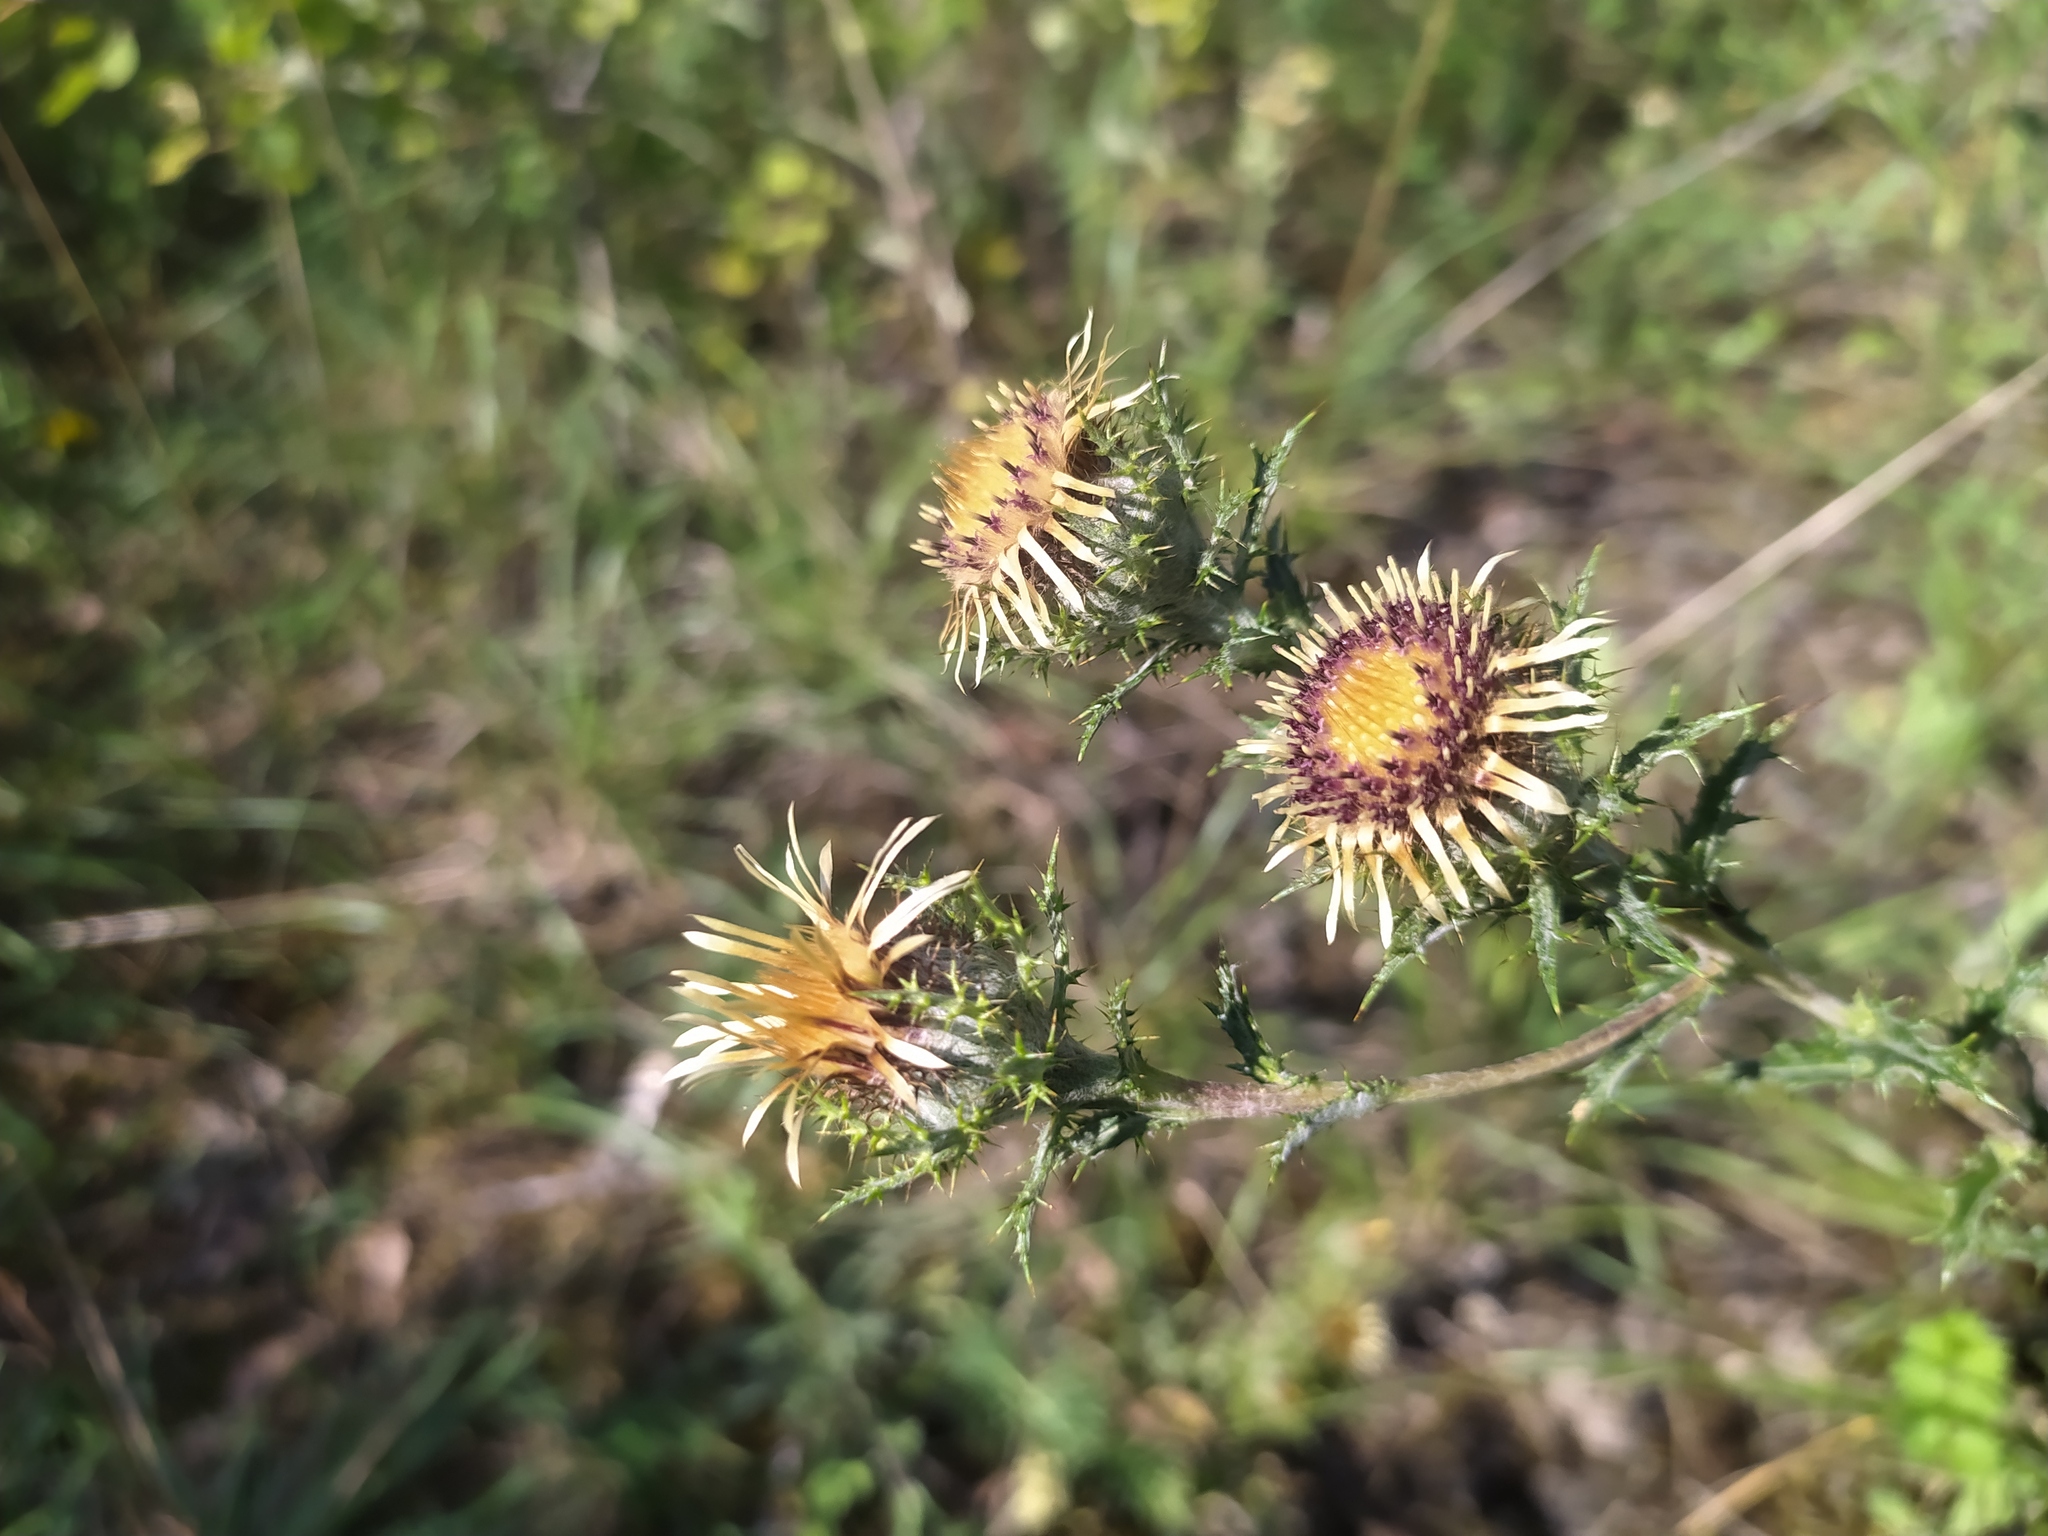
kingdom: Plantae
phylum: Tracheophyta
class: Magnoliopsida
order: Asterales
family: Asteraceae
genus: Carlina
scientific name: Carlina vulgaris
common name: Carline thistle
